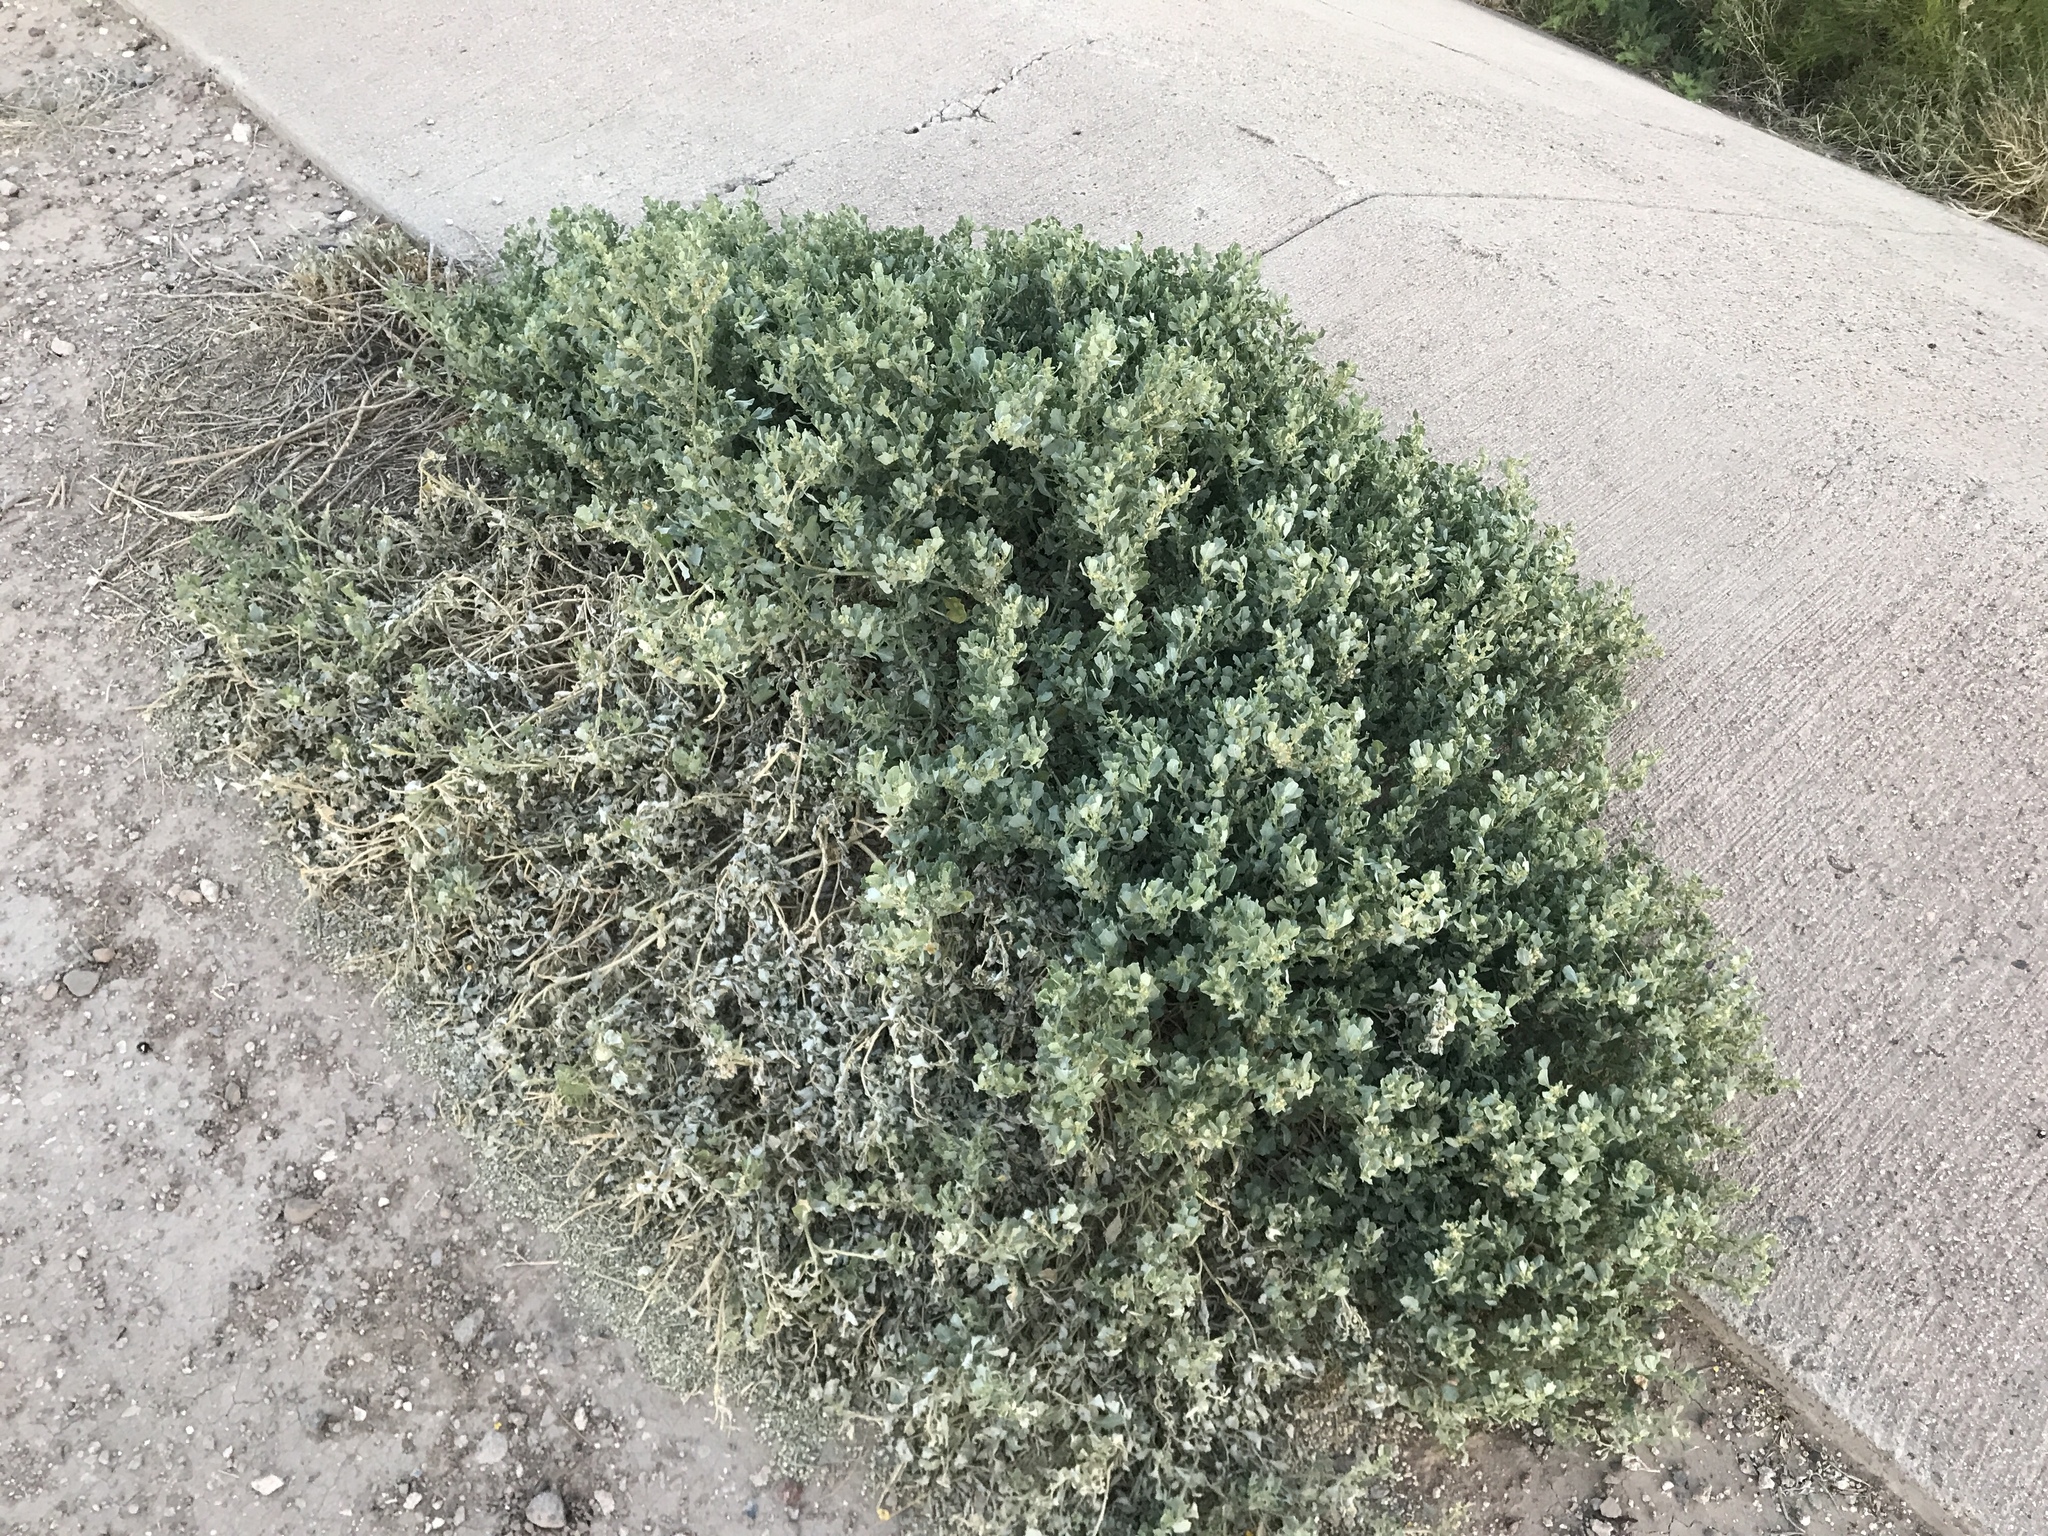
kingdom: Plantae
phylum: Tracheophyta
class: Magnoliopsida
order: Caryophyllales
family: Amaranthaceae
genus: Atriplex
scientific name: Atriplex lentiformis
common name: Big saltbush
